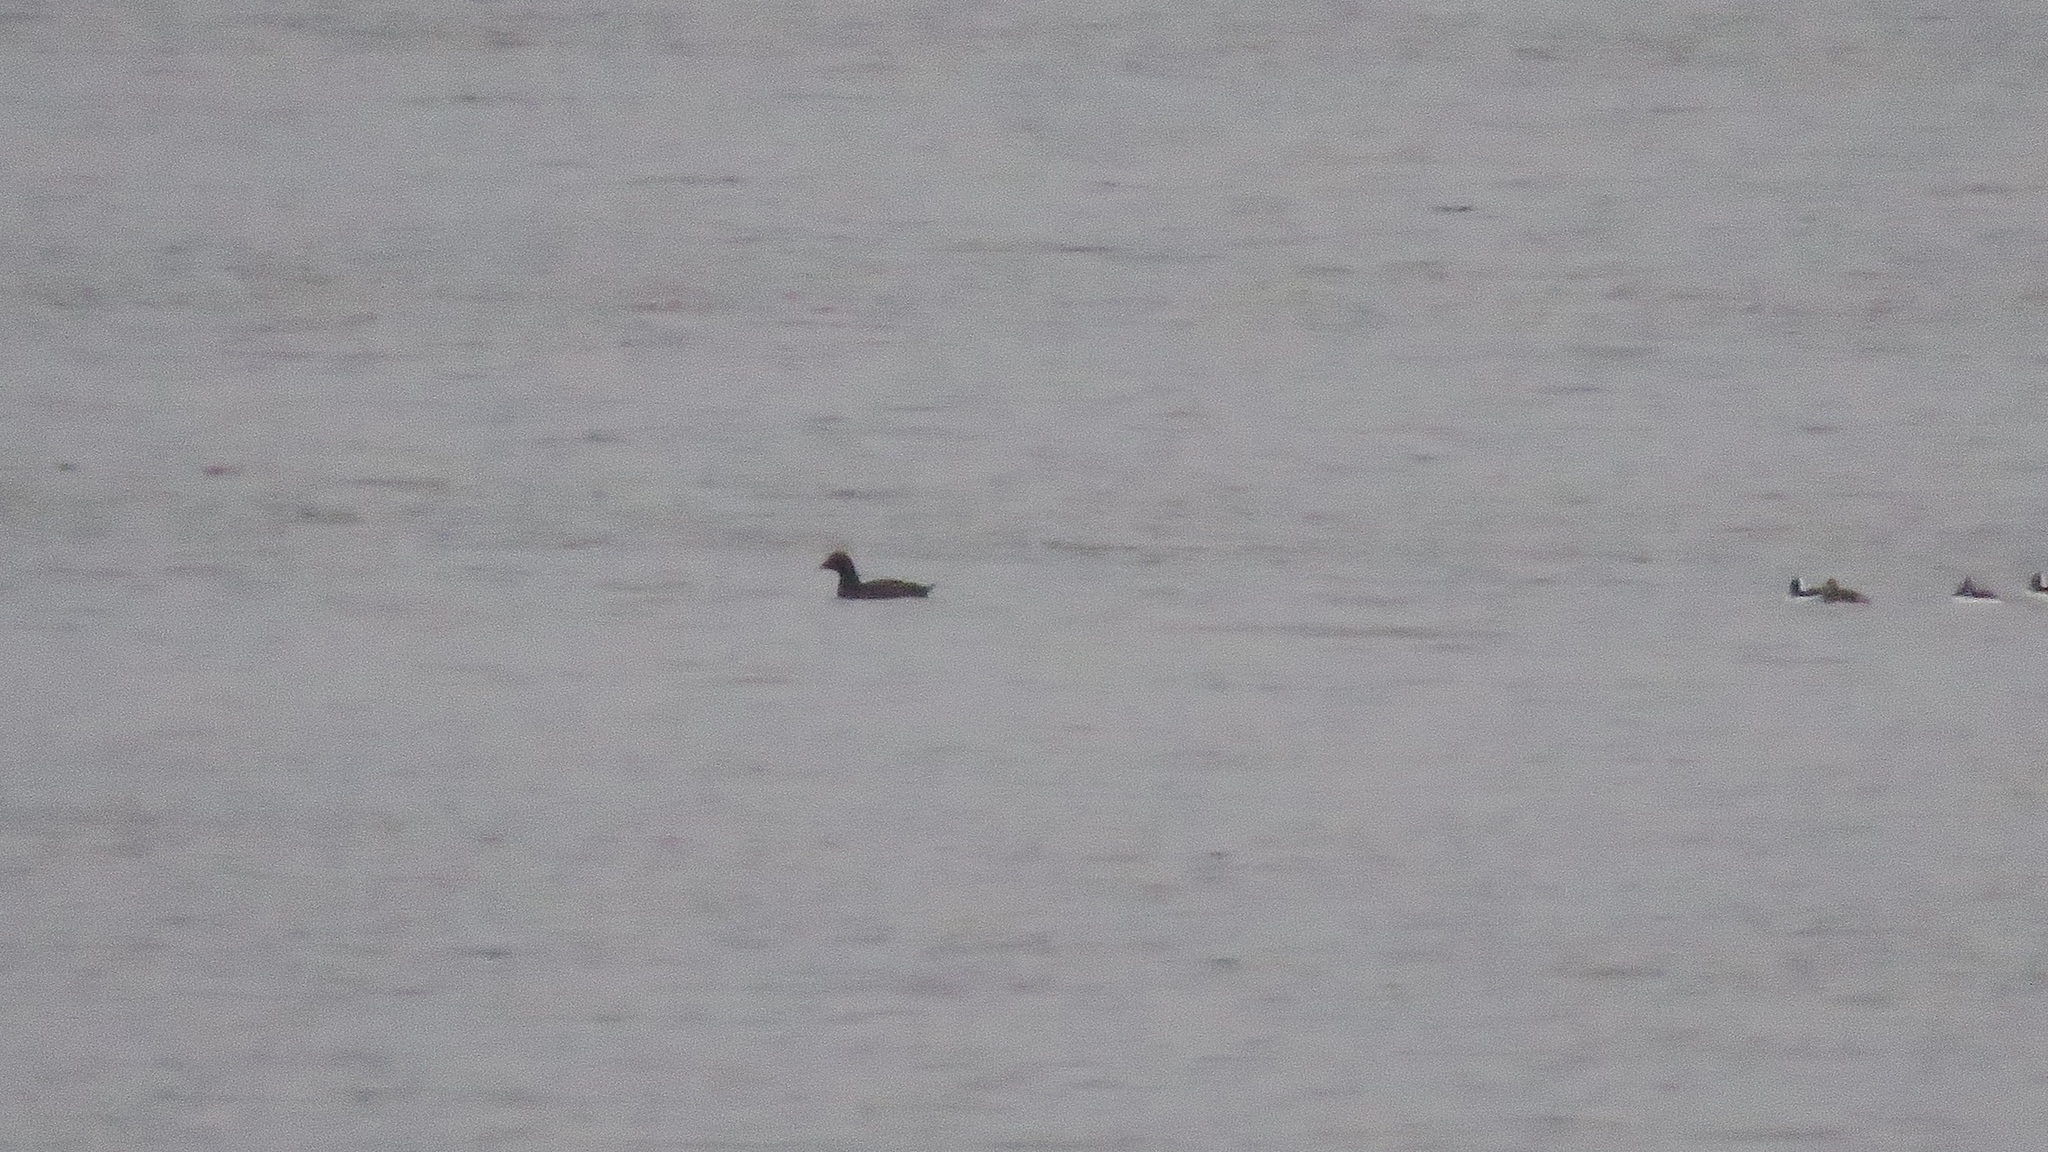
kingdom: Animalia
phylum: Chordata
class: Aves
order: Anseriformes
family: Anatidae
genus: Melanitta
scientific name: Melanitta deglandi
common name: White-winged scoter
